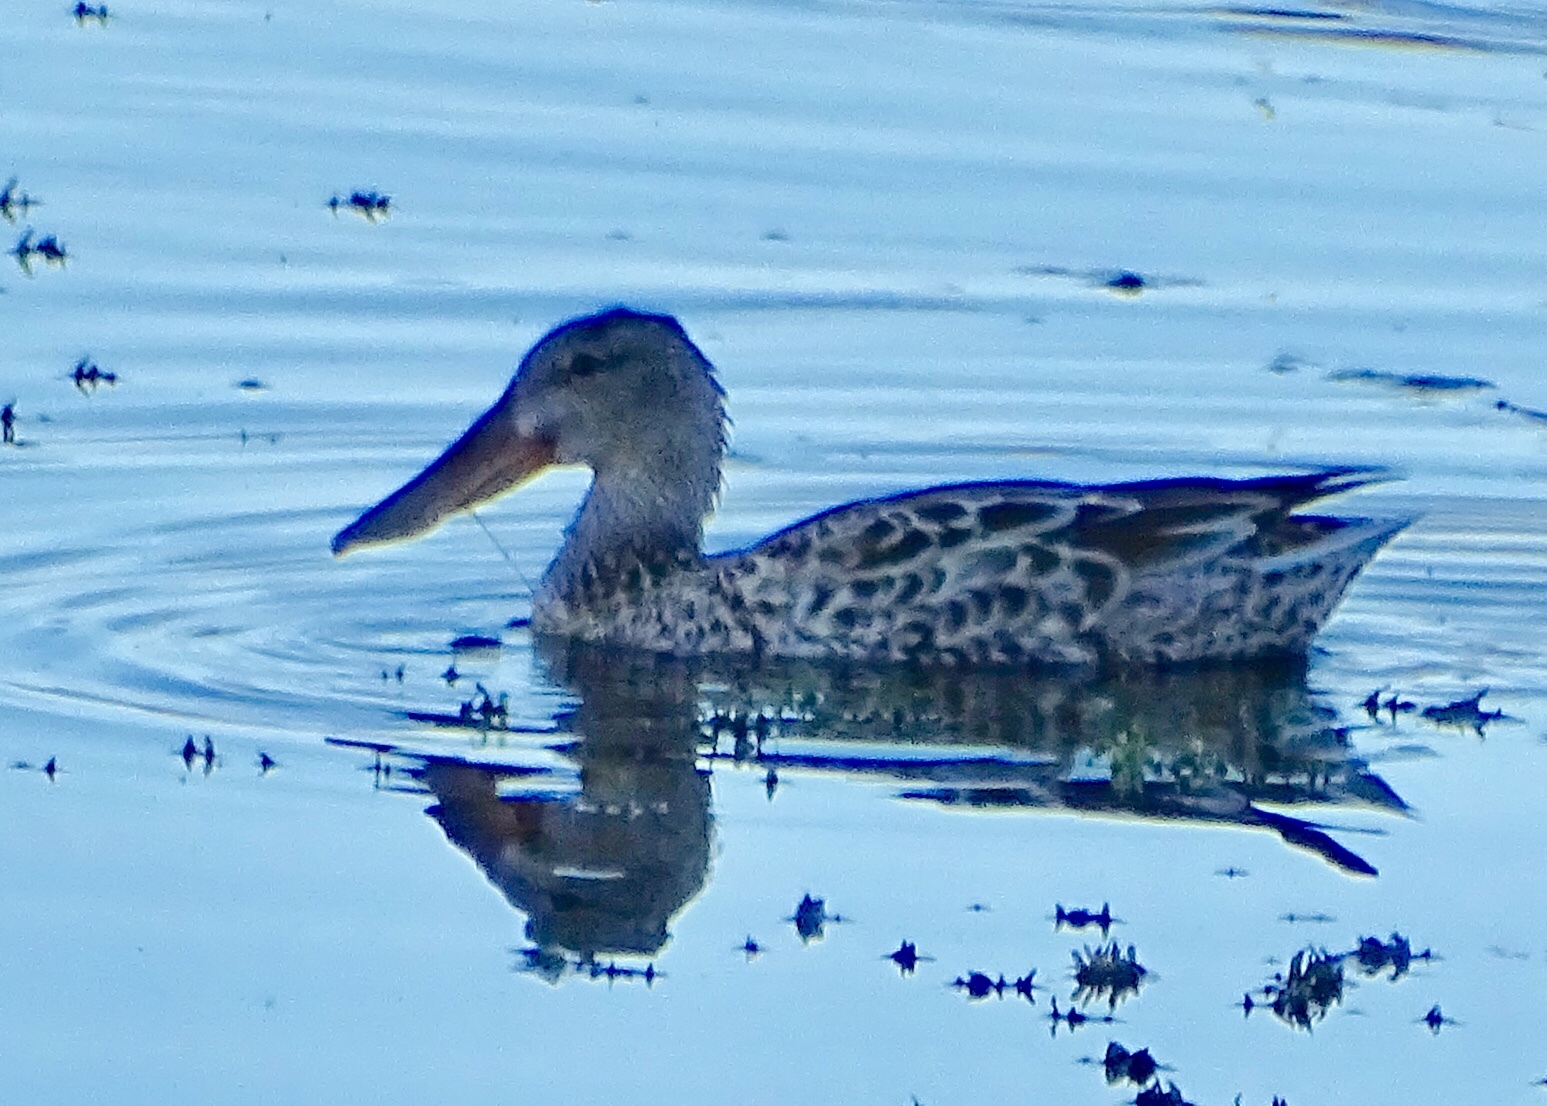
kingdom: Animalia
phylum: Chordata
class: Aves
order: Anseriformes
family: Anatidae
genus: Spatula
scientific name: Spatula clypeata
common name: Northern shoveler
